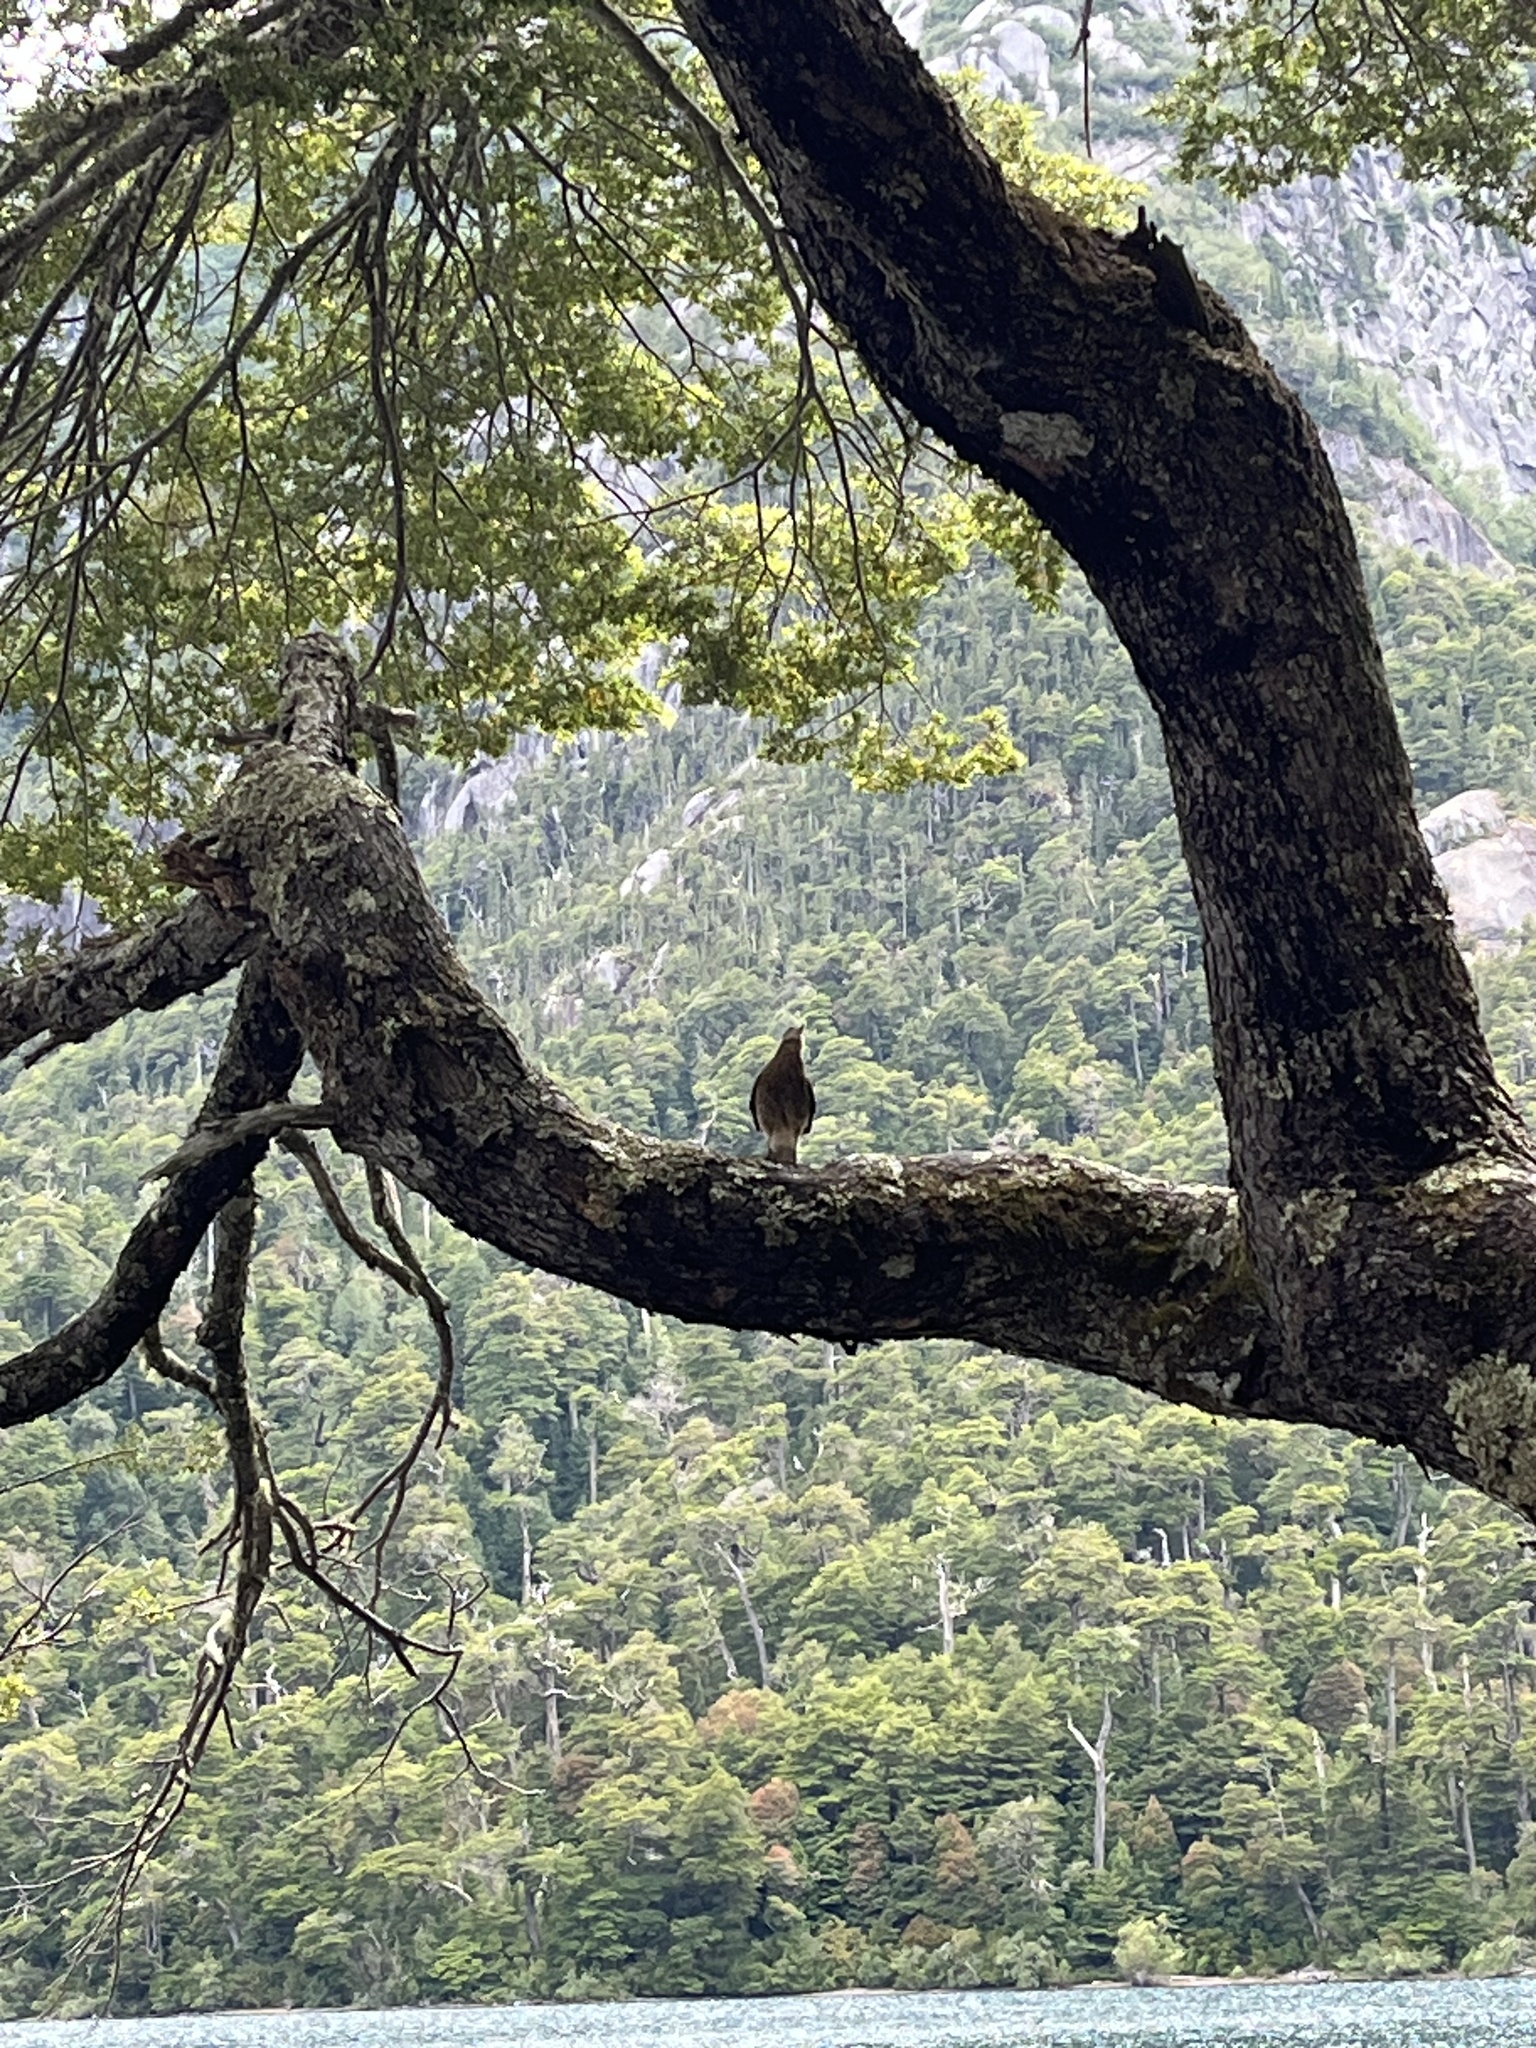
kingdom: Animalia
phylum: Chordata
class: Aves
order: Falconiformes
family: Falconidae
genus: Daptrius
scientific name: Daptrius
